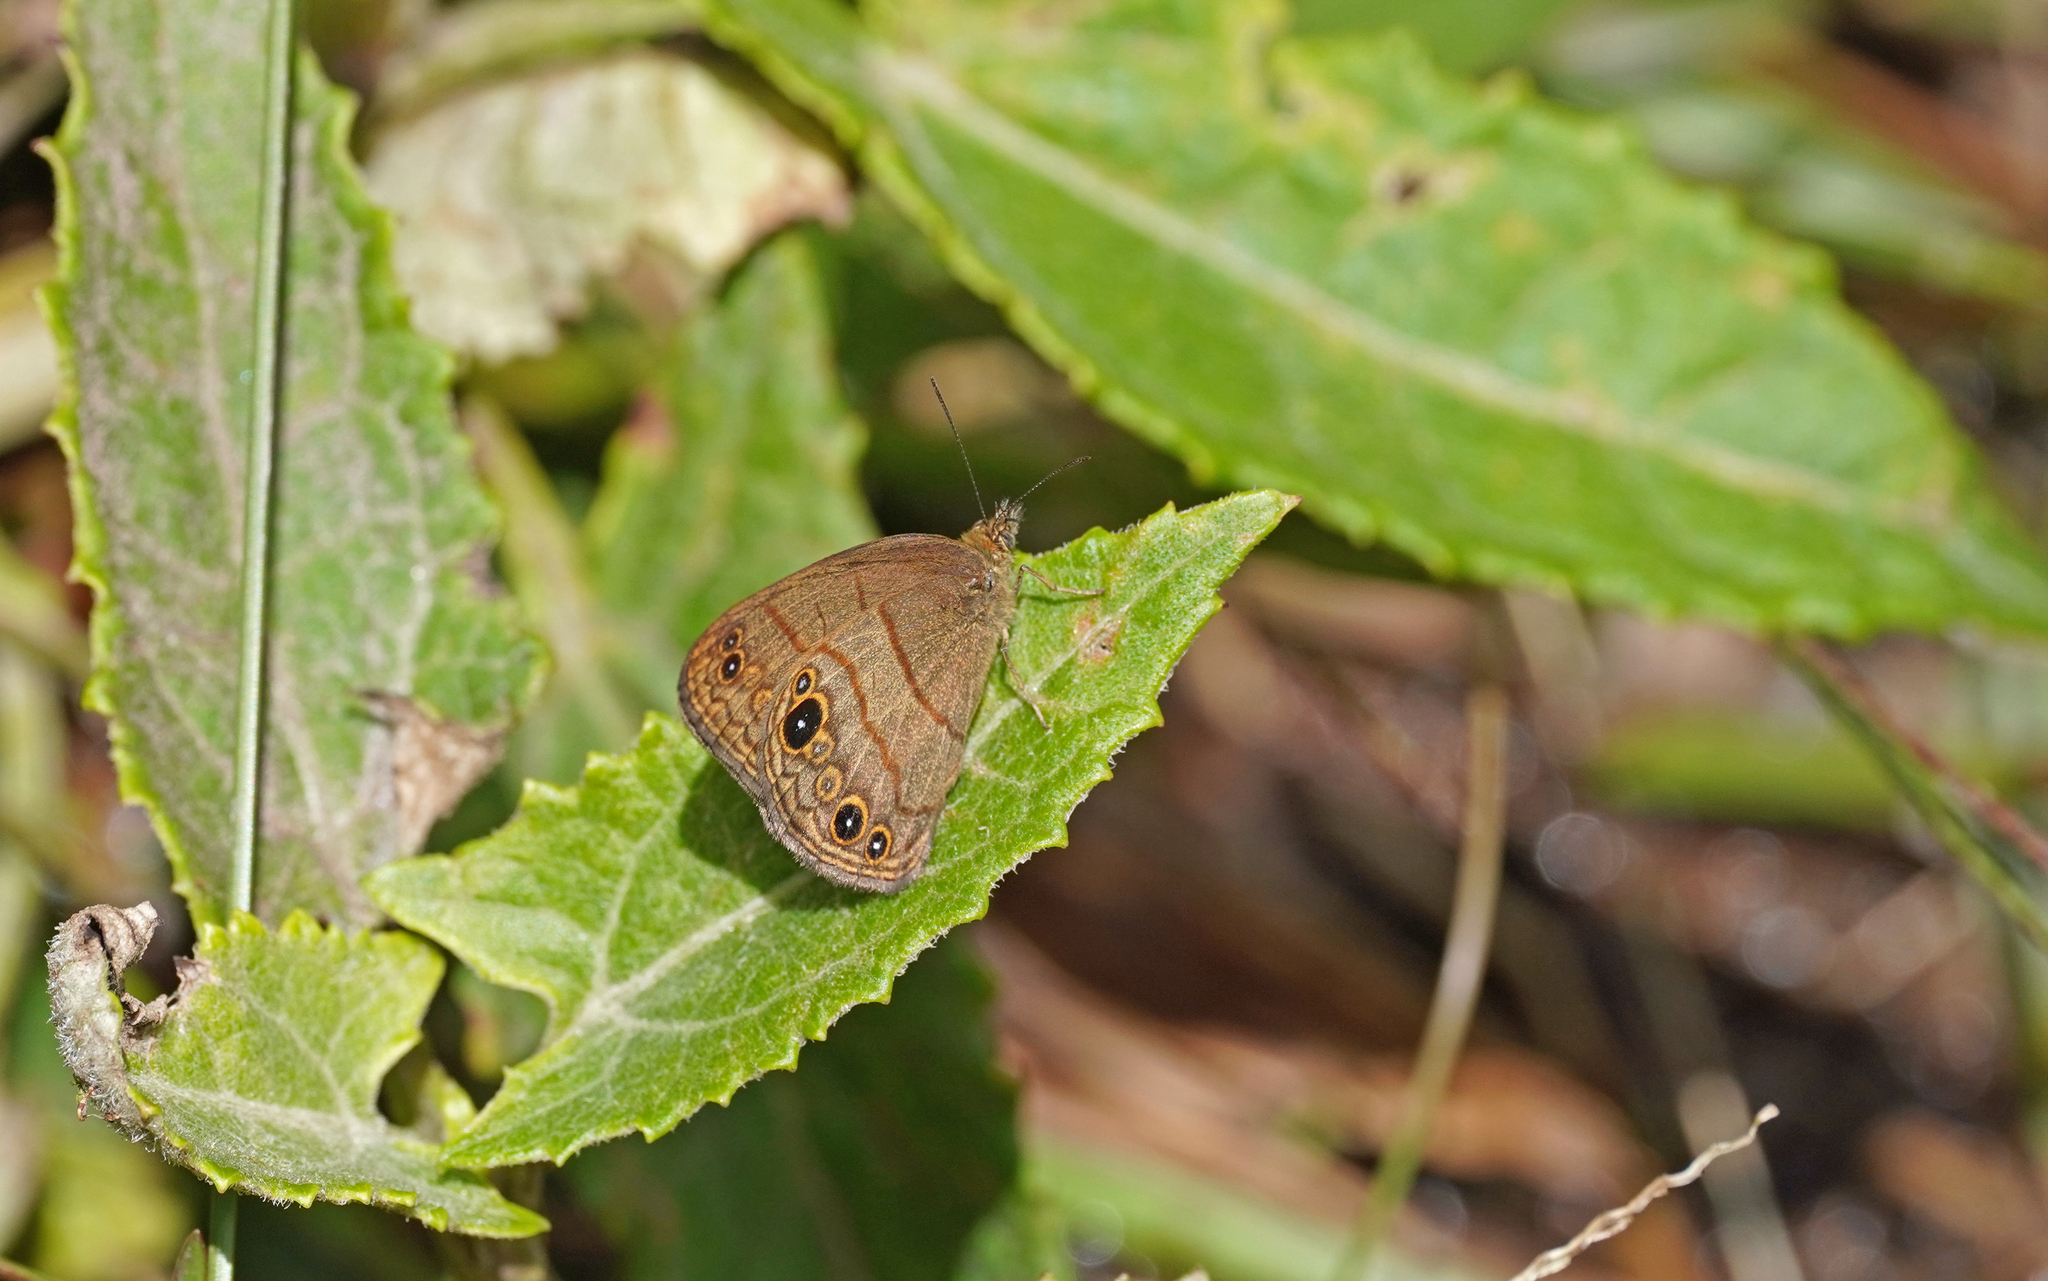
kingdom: Animalia
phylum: Arthropoda
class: Insecta
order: Lepidoptera
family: Nymphalidae
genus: Hermeuptychia
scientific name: Hermeuptychia harmonia
